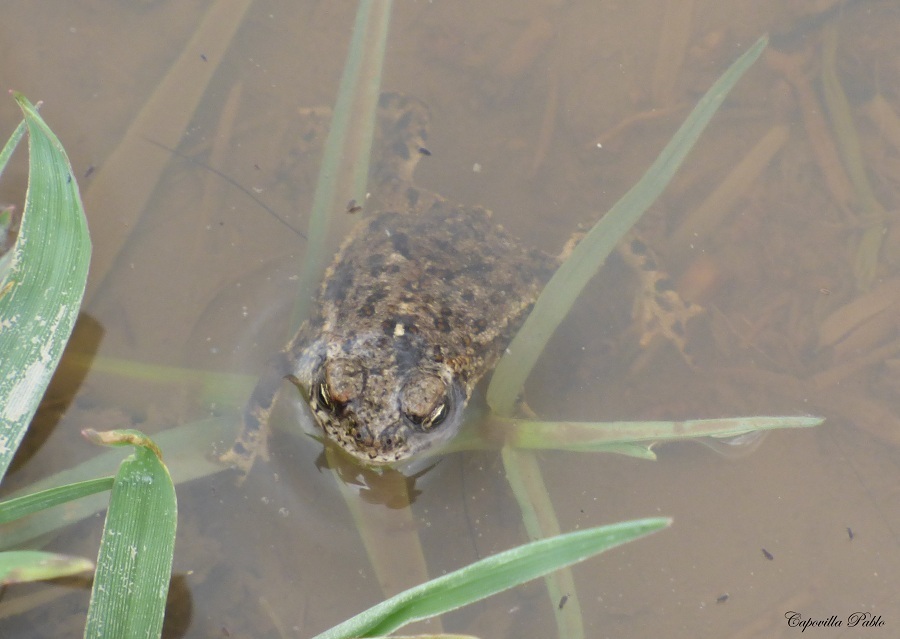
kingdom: Animalia
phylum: Chordata
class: Amphibia
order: Anura
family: Bufonidae
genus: Rhinella
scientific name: Rhinella bergi
